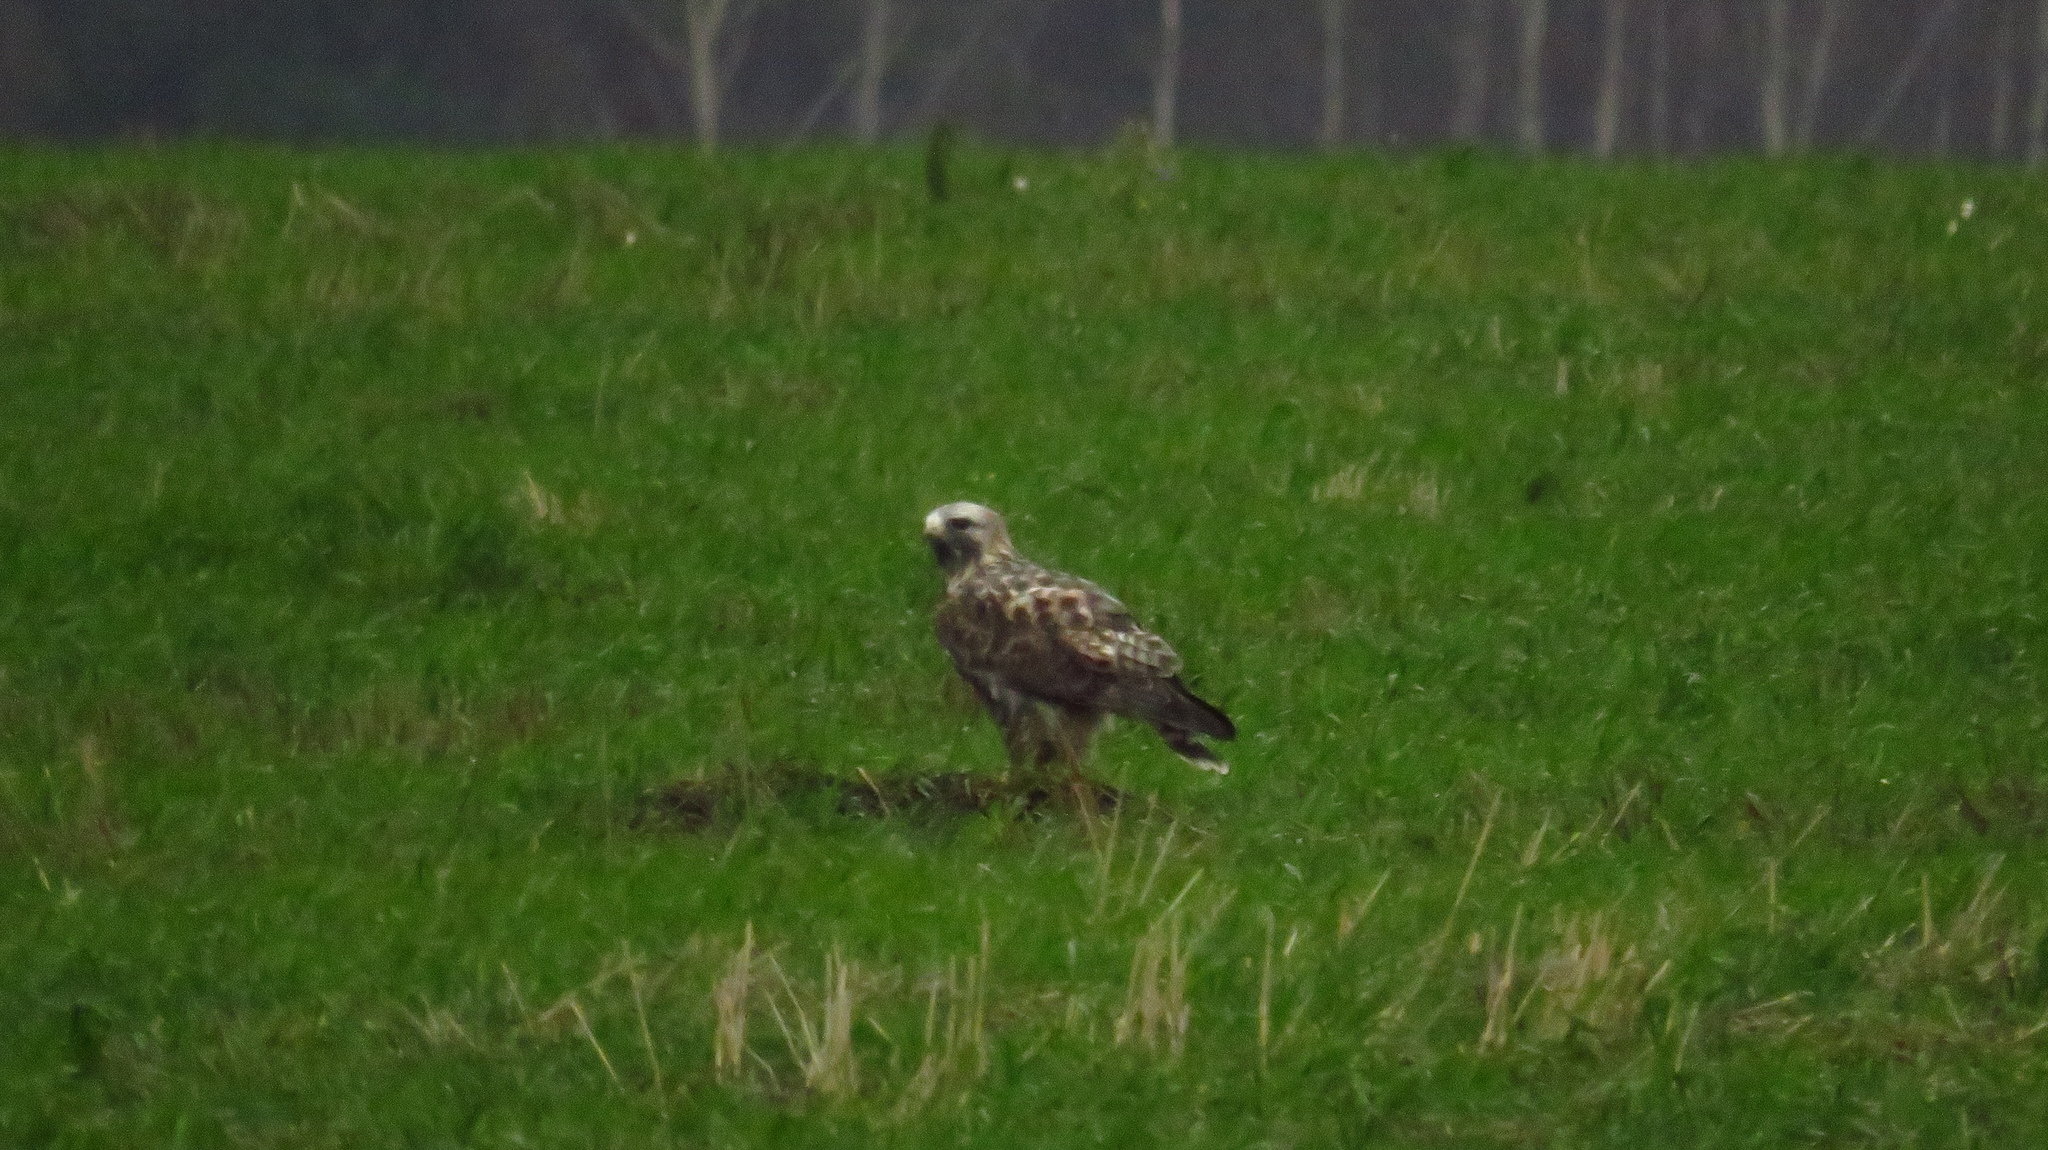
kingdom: Animalia
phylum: Chordata
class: Aves
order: Accipitriformes
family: Accipitridae
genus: Buteo
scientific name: Buteo lagopus
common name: Rough-legged buzzard
